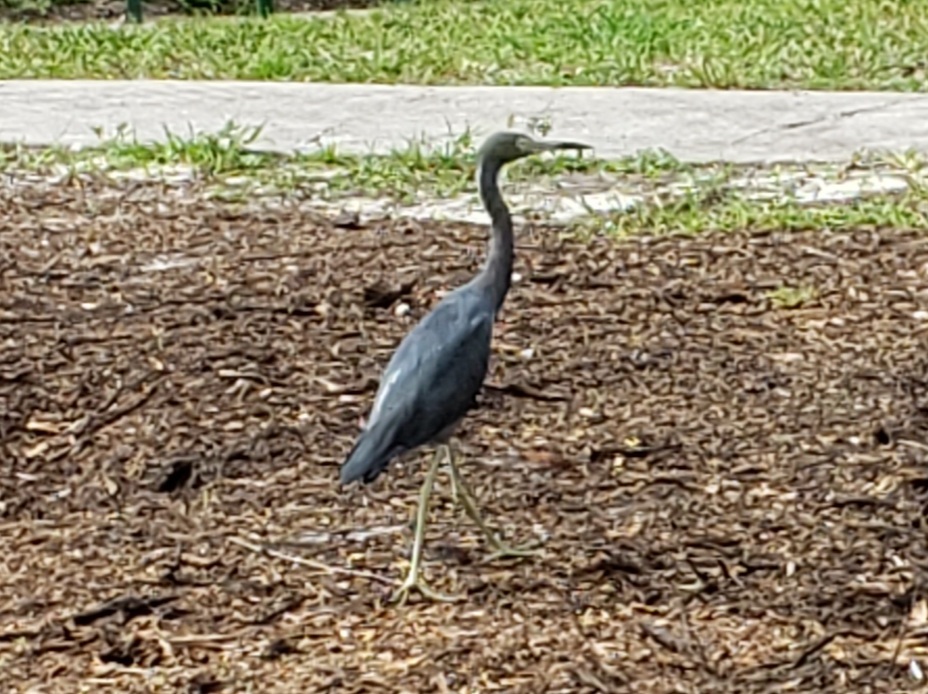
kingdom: Animalia
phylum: Chordata
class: Aves
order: Pelecaniformes
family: Ardeidae
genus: Egretta
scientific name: Egretta caerulea
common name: Little blue heron
